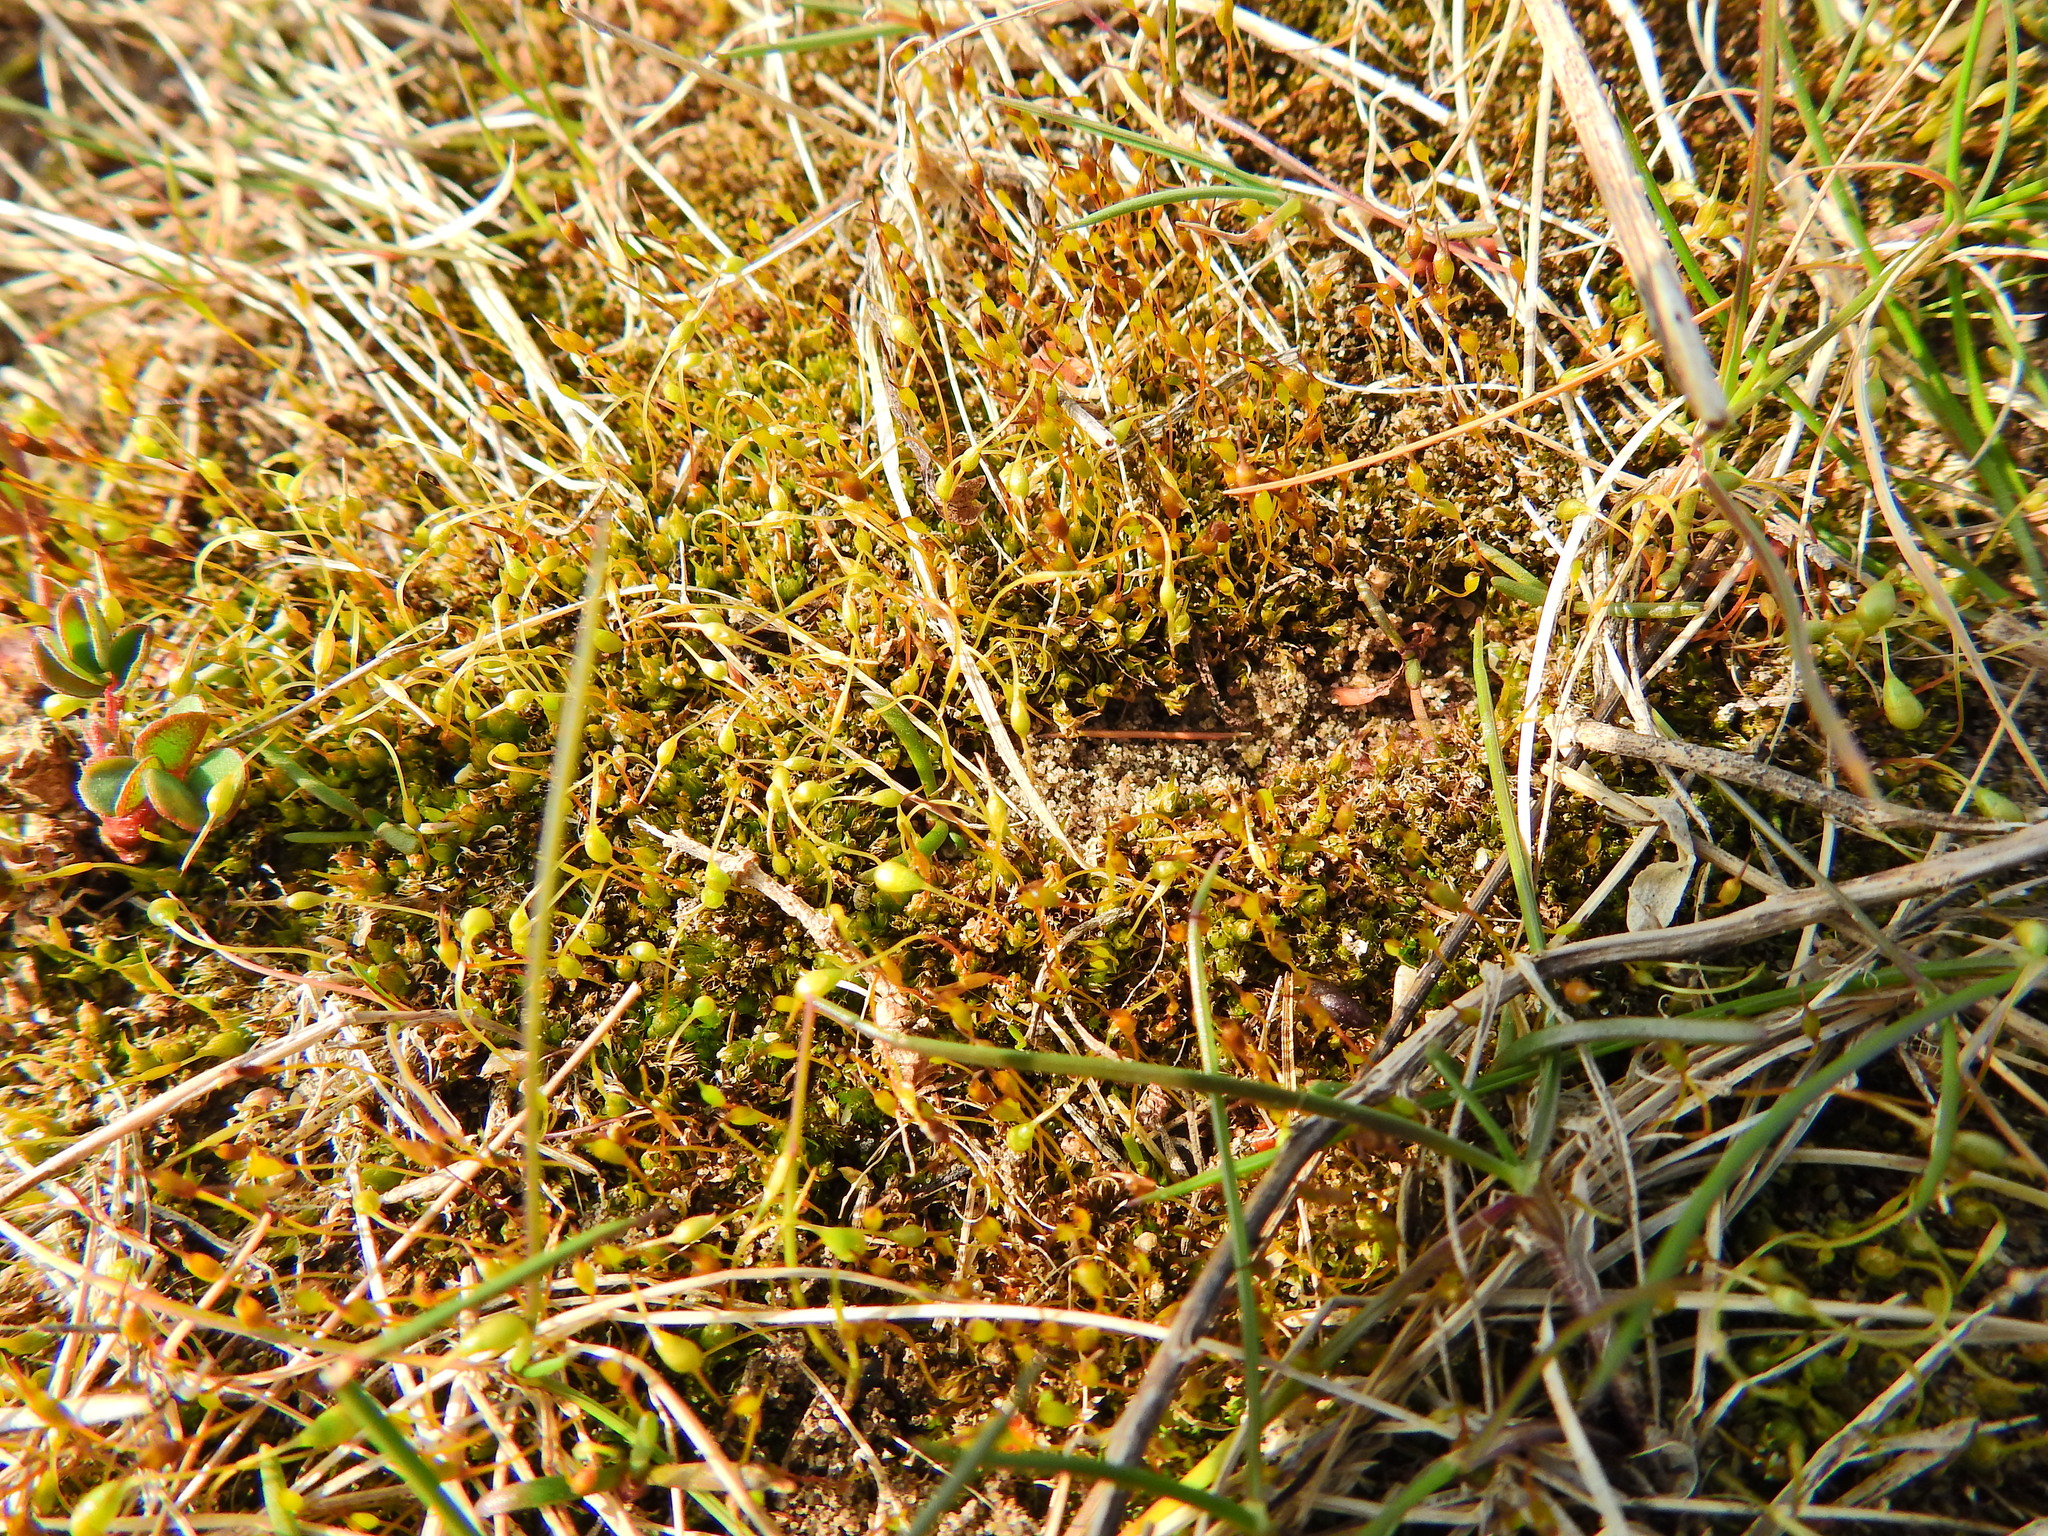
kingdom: Plantae
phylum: Bryophyta
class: Bryopsida
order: Funariales
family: Funariaceae
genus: Funaria
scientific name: Funaria hygrometrica
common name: Common cord moss
